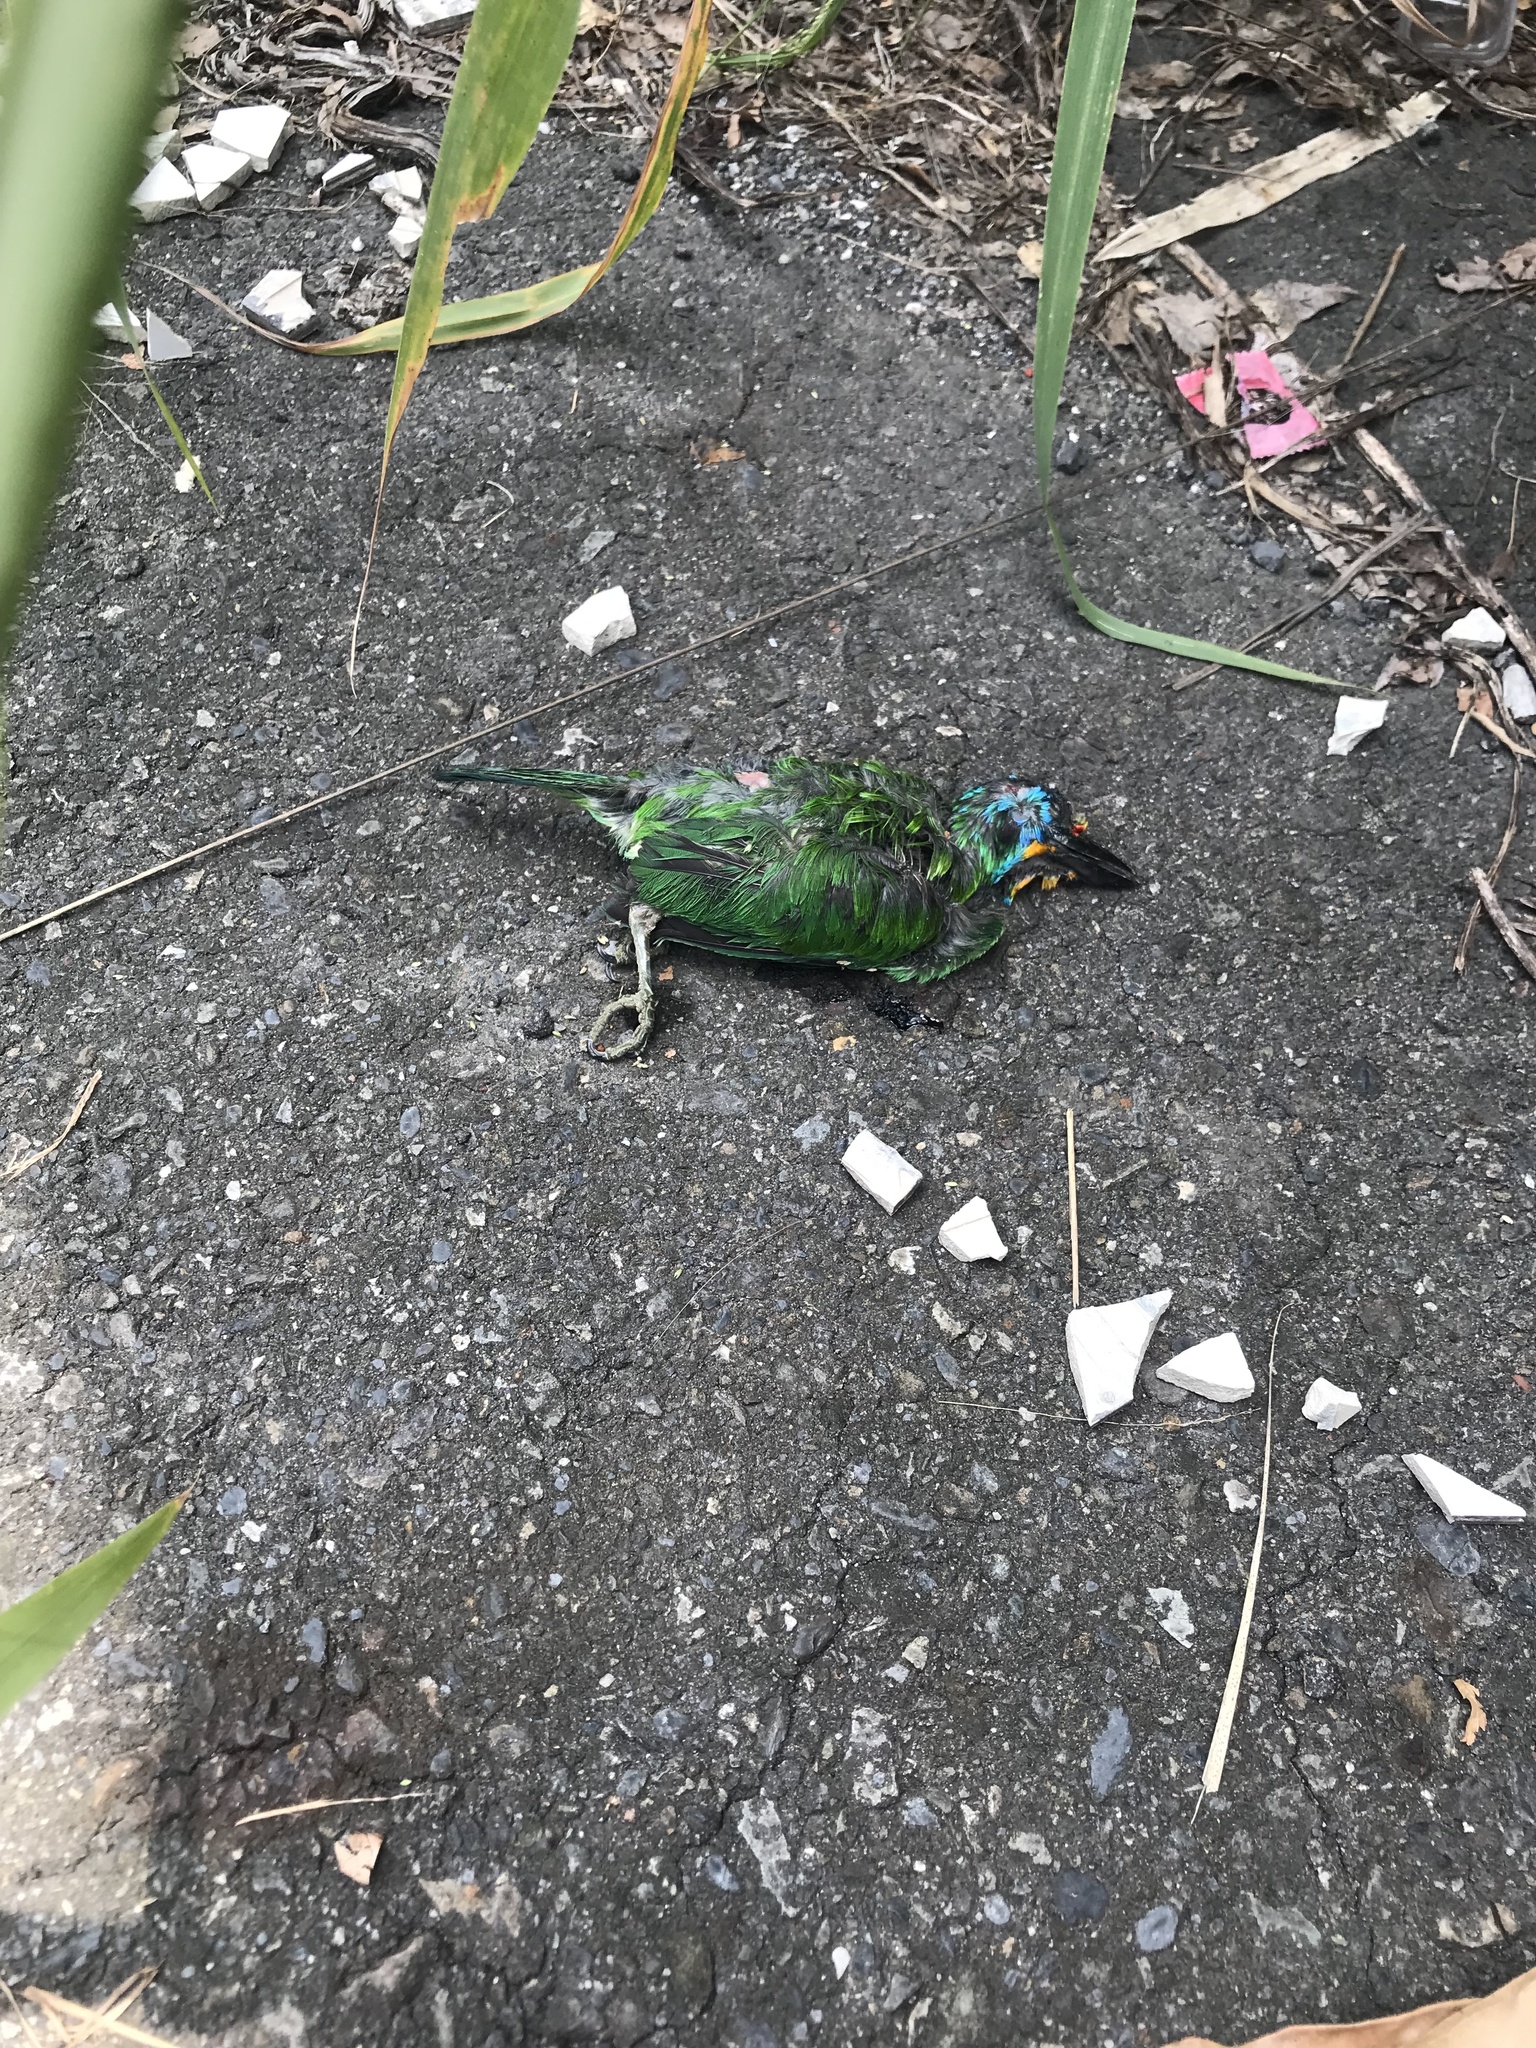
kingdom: Animalia
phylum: Chordata
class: Aves
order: Piciformes
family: Megalaimidae
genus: Psilopogon
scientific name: Psilopogon nuchalis
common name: Taiwan barbet
